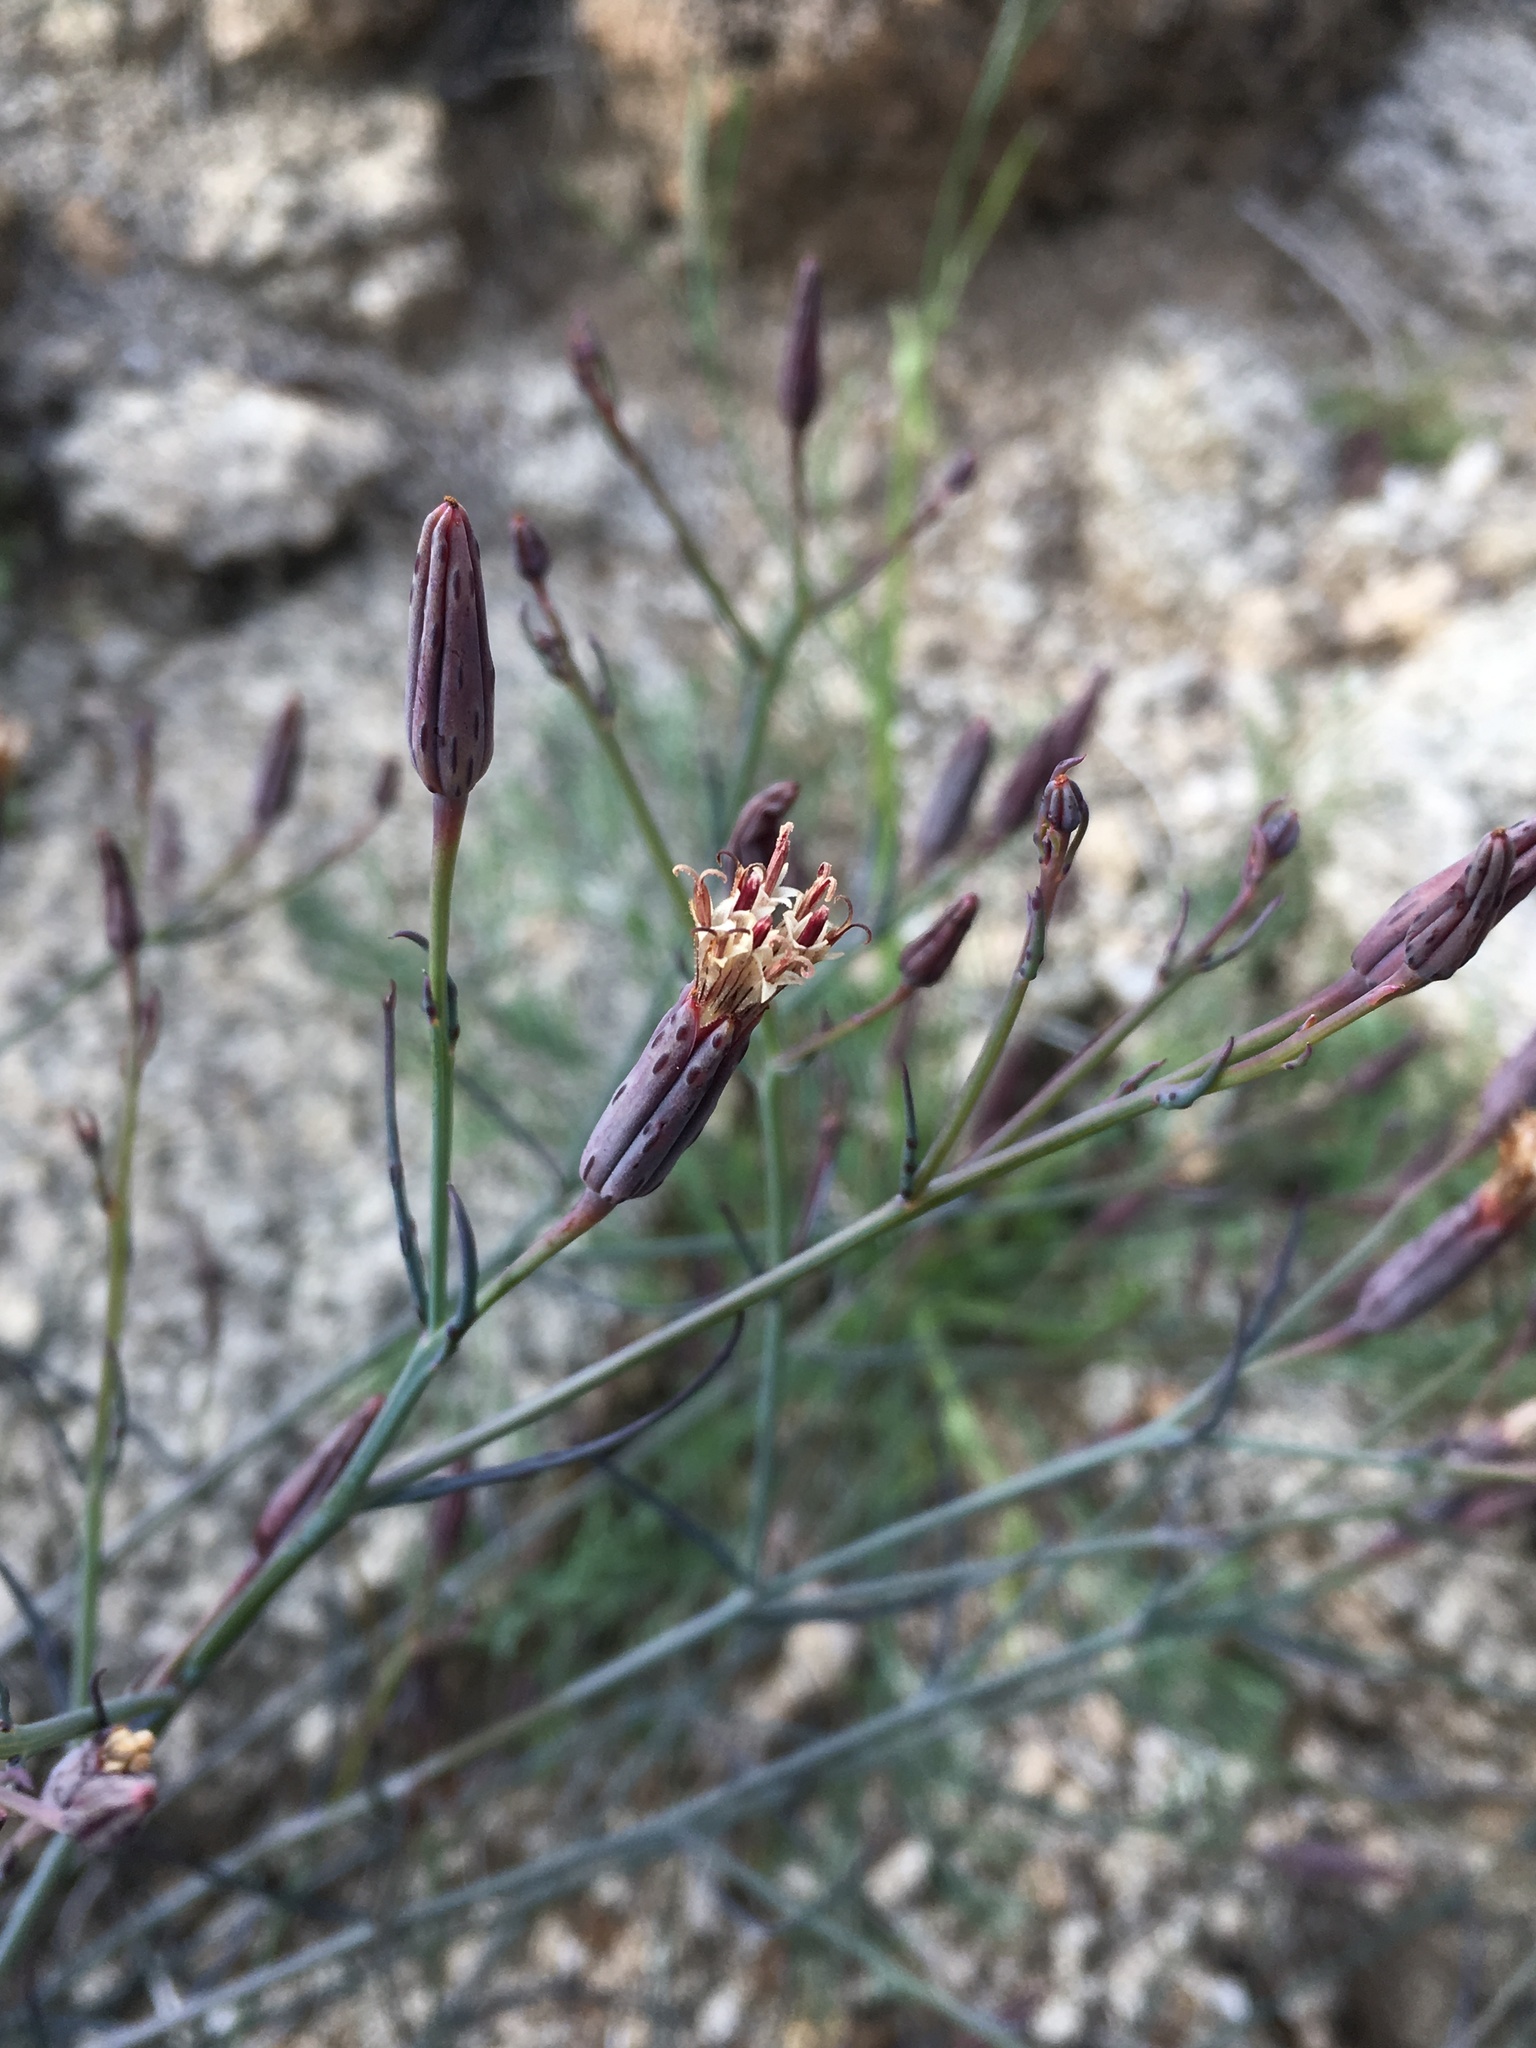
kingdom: Plantae
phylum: Tracheophyta
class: Magnoliopsida
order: Asterales
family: Asteraceae
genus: Porophyllum
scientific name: Porophyllum gracile
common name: Odora
